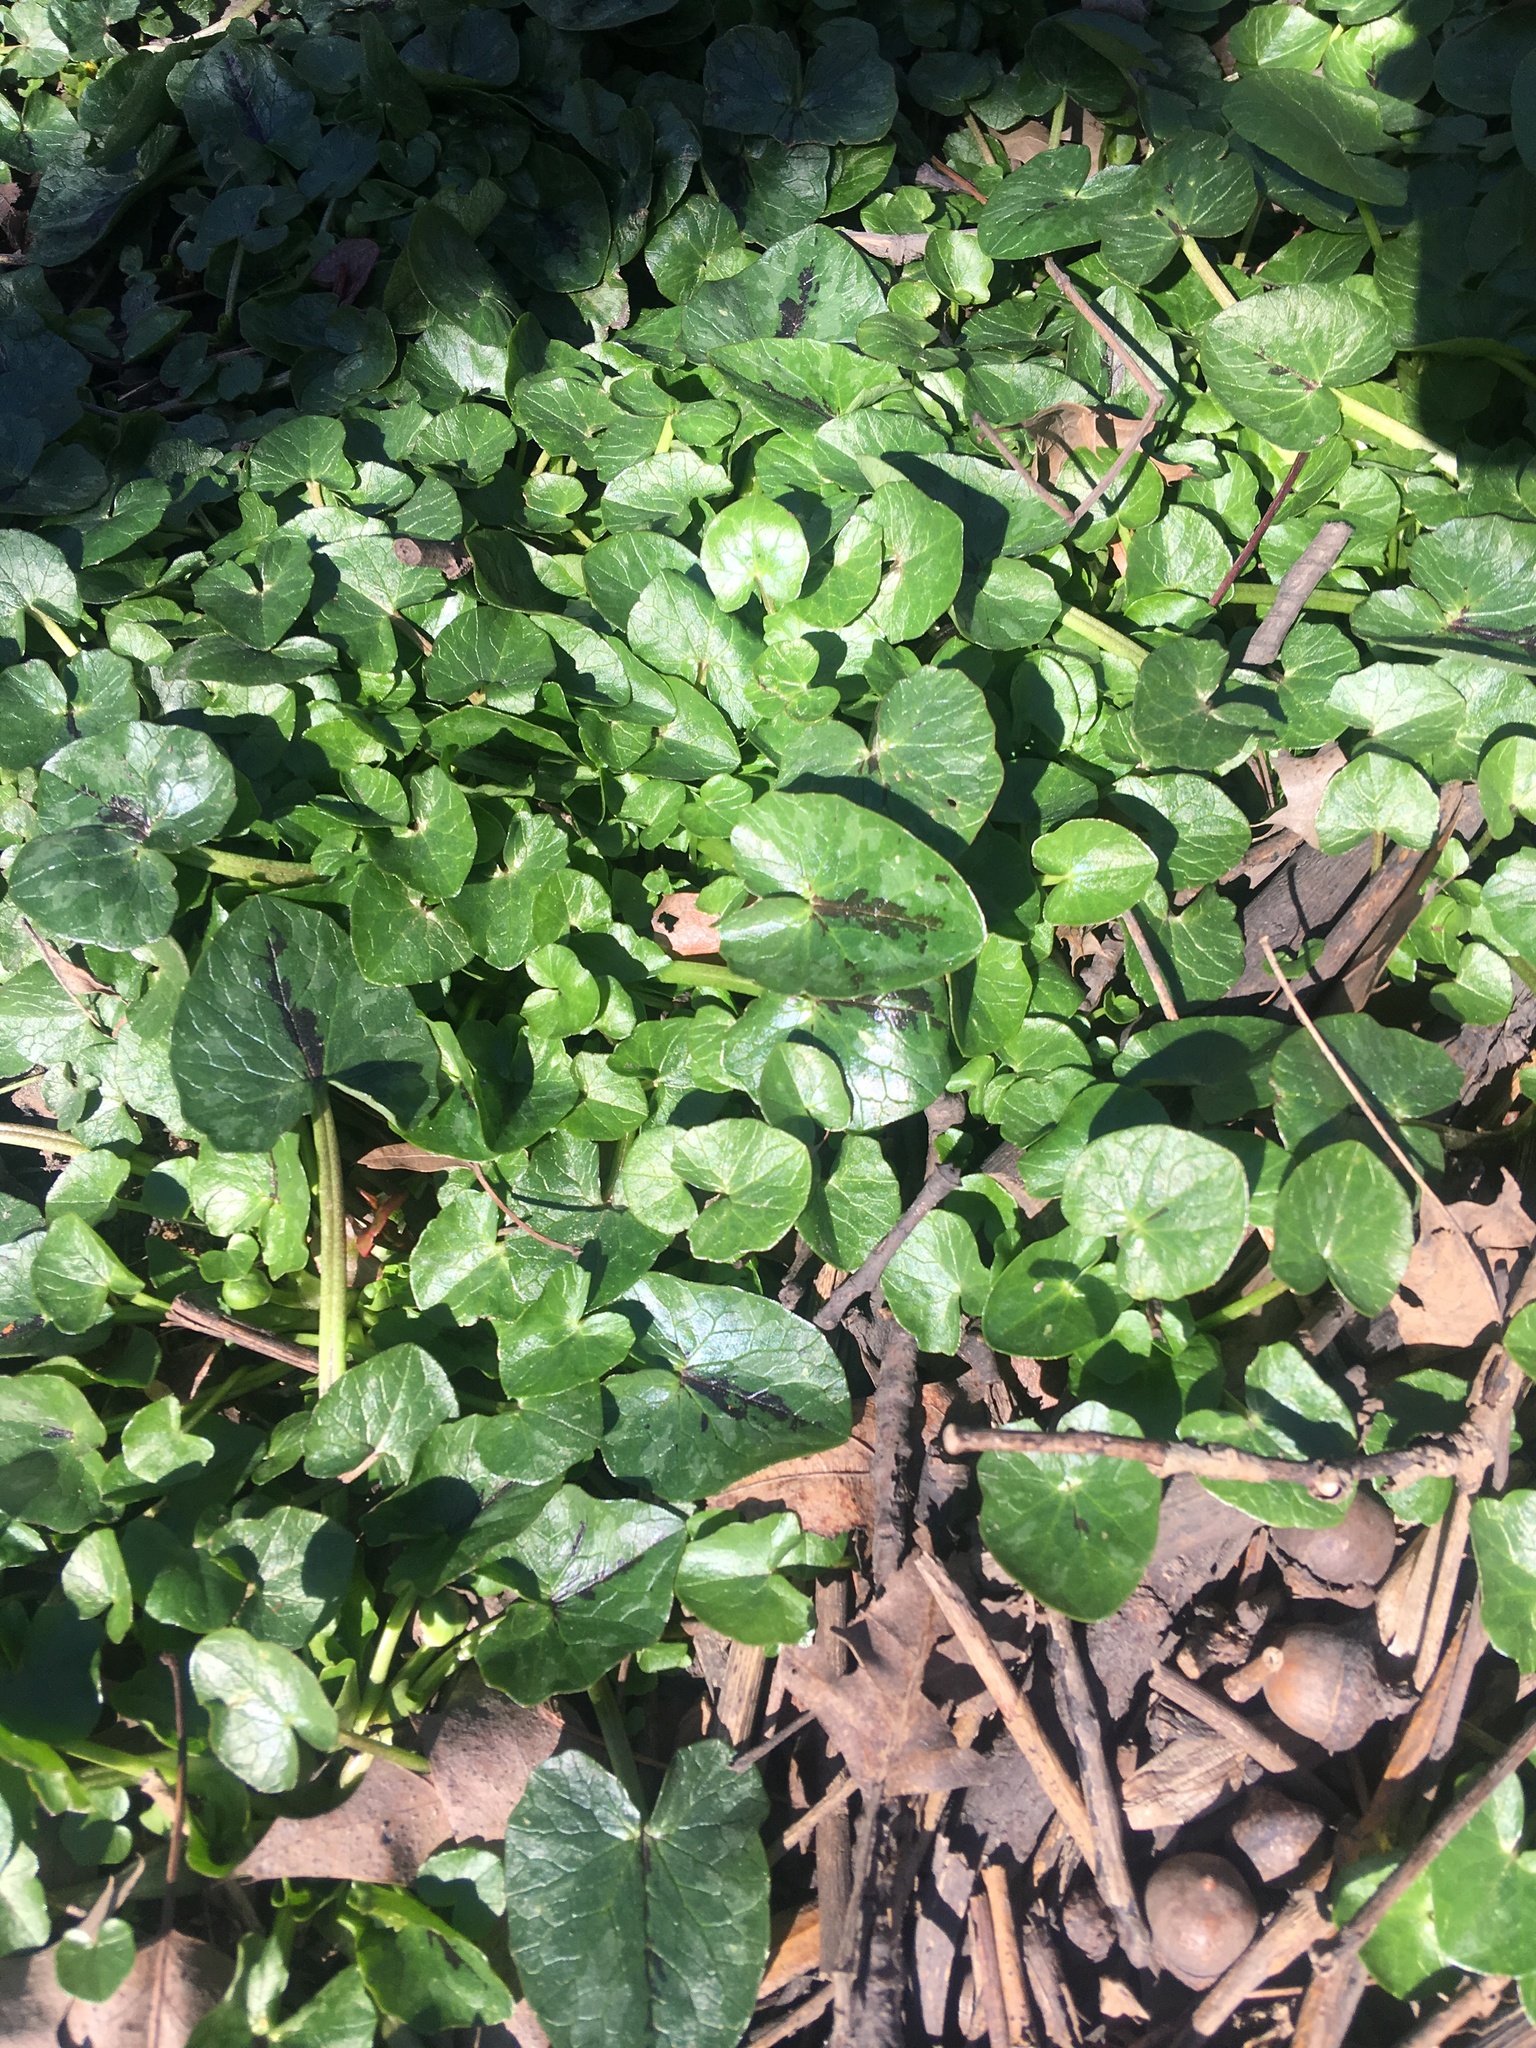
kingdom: Plantae
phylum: Tracheophyta
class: Magnoliopsida
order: Ranunculales
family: Ranunculaceae
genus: Ficaria
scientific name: Ficaria verna
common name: Lesser celandine
